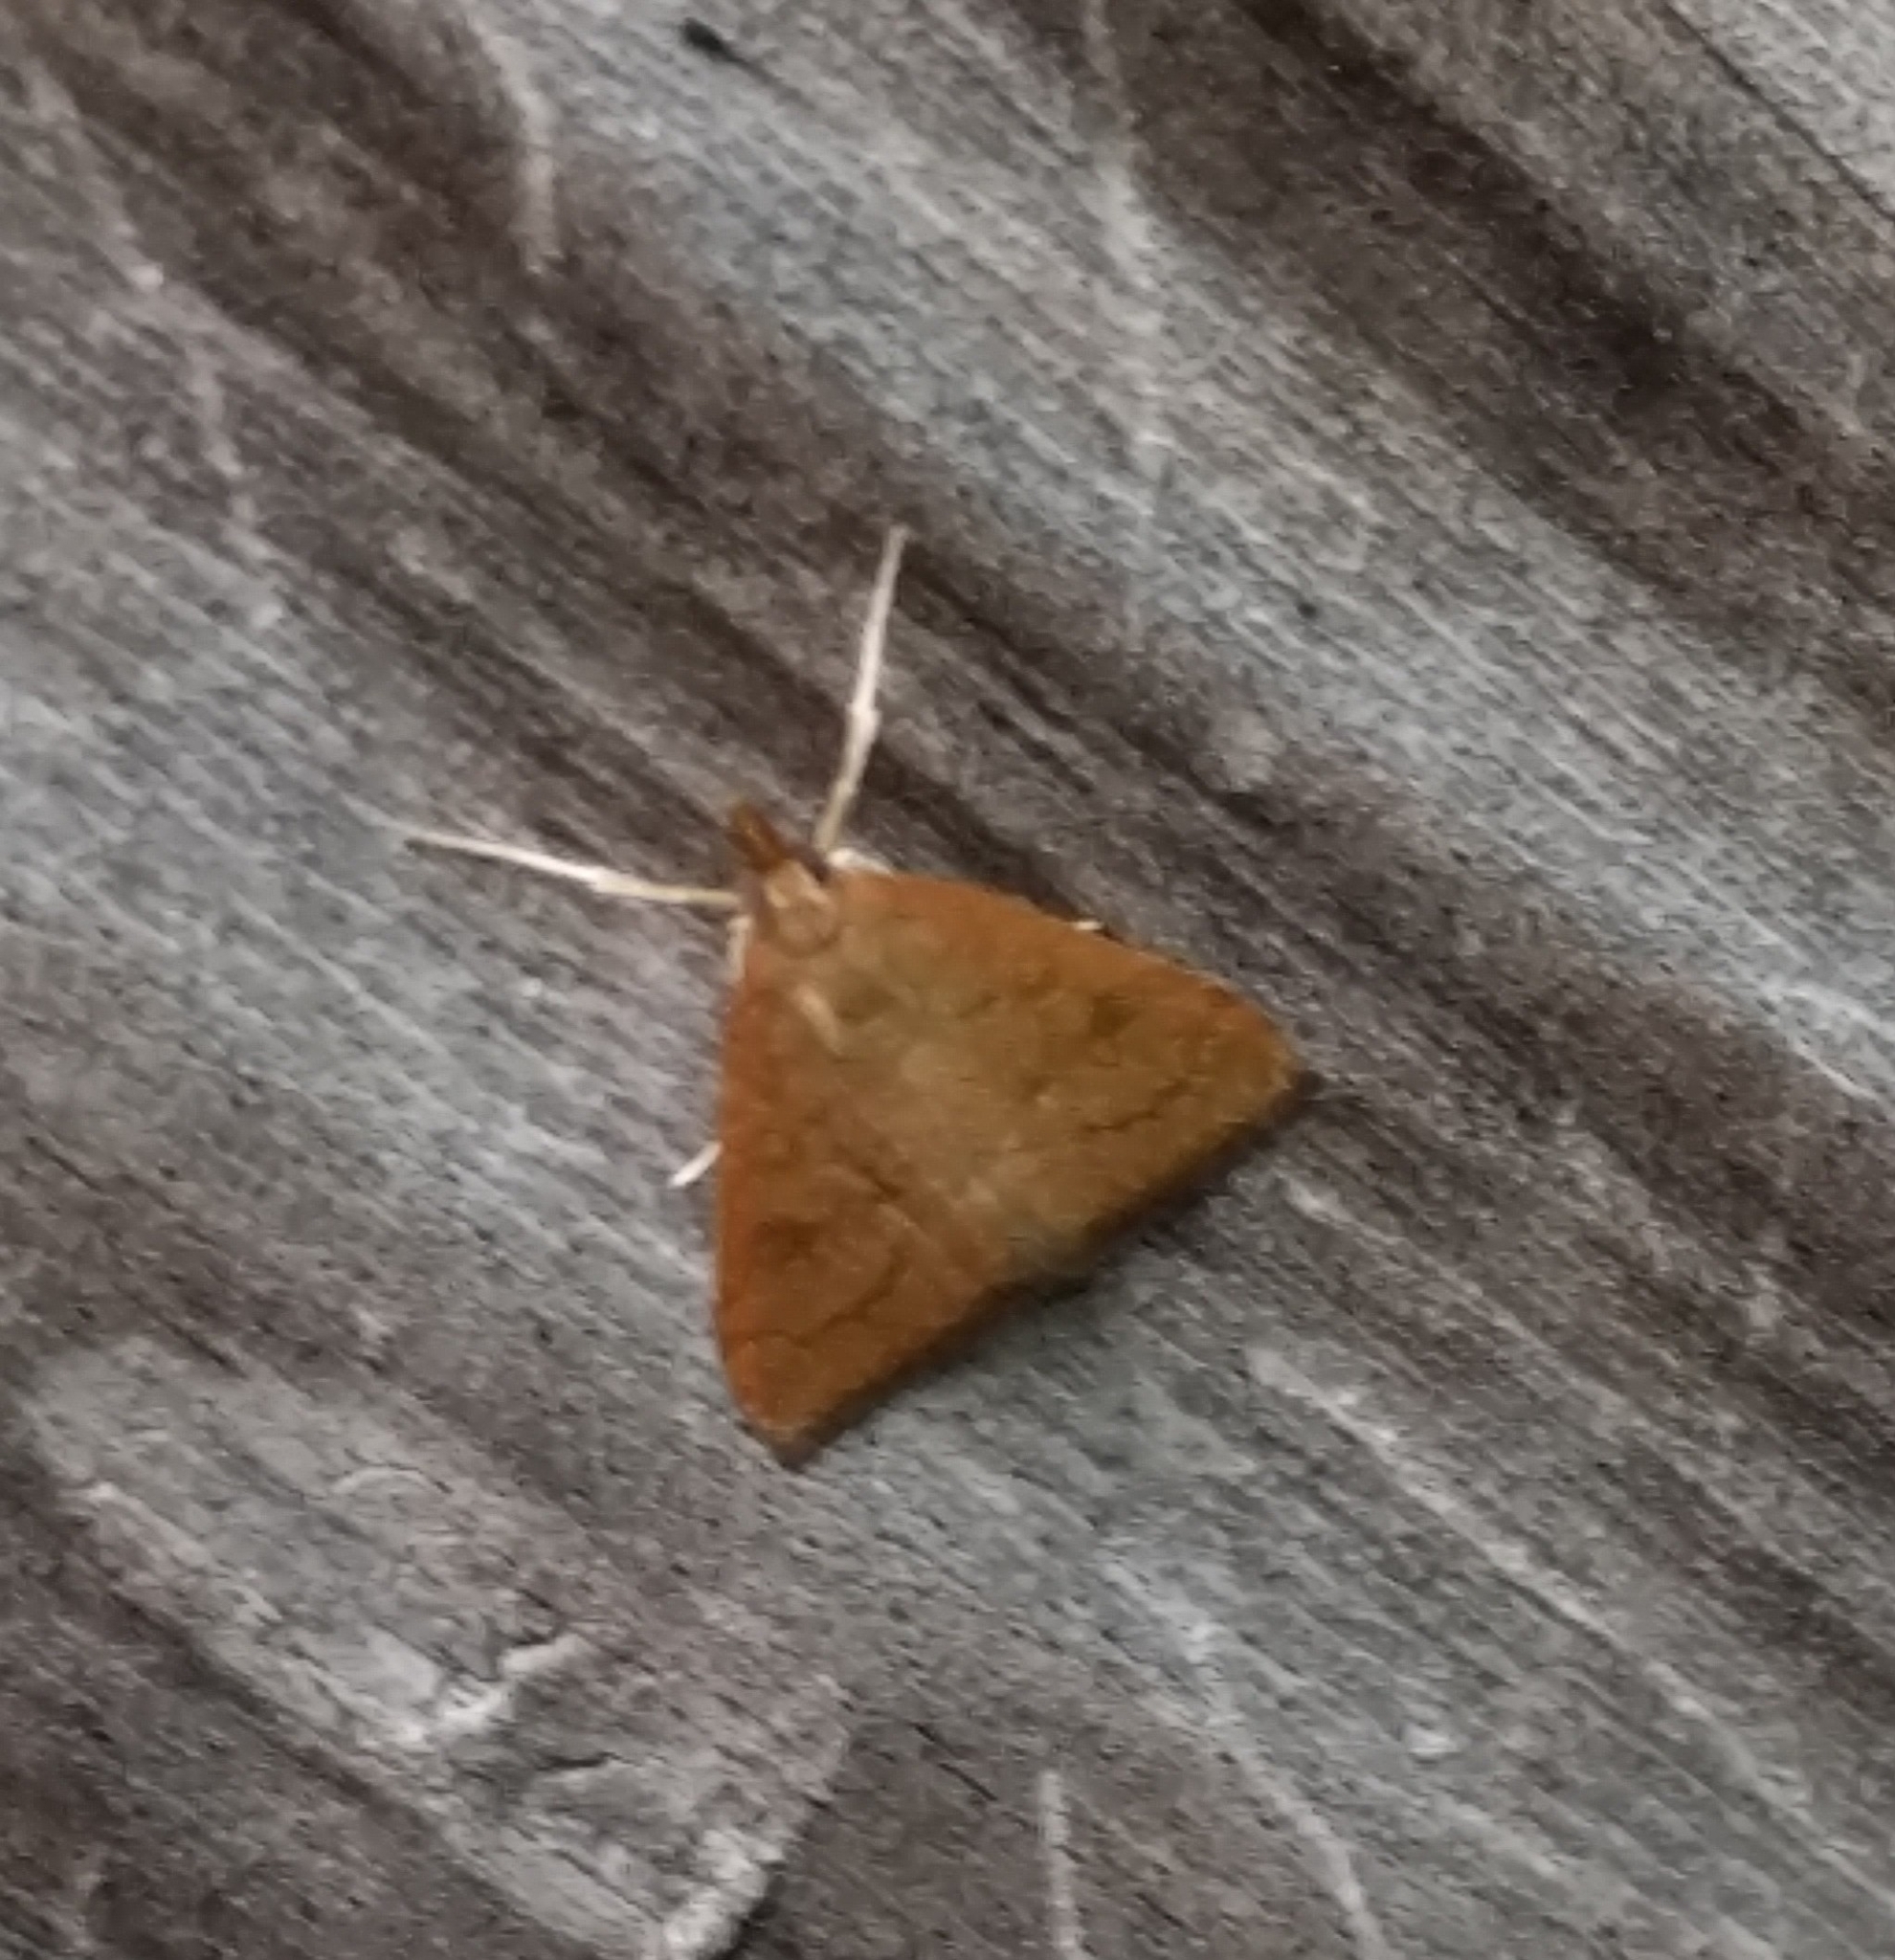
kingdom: Animalia
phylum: Arthropoda
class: Insecta
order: Lepidoptera
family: Crambidae
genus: Udea
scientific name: Udea rubigalis
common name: Celery leaftier moth
